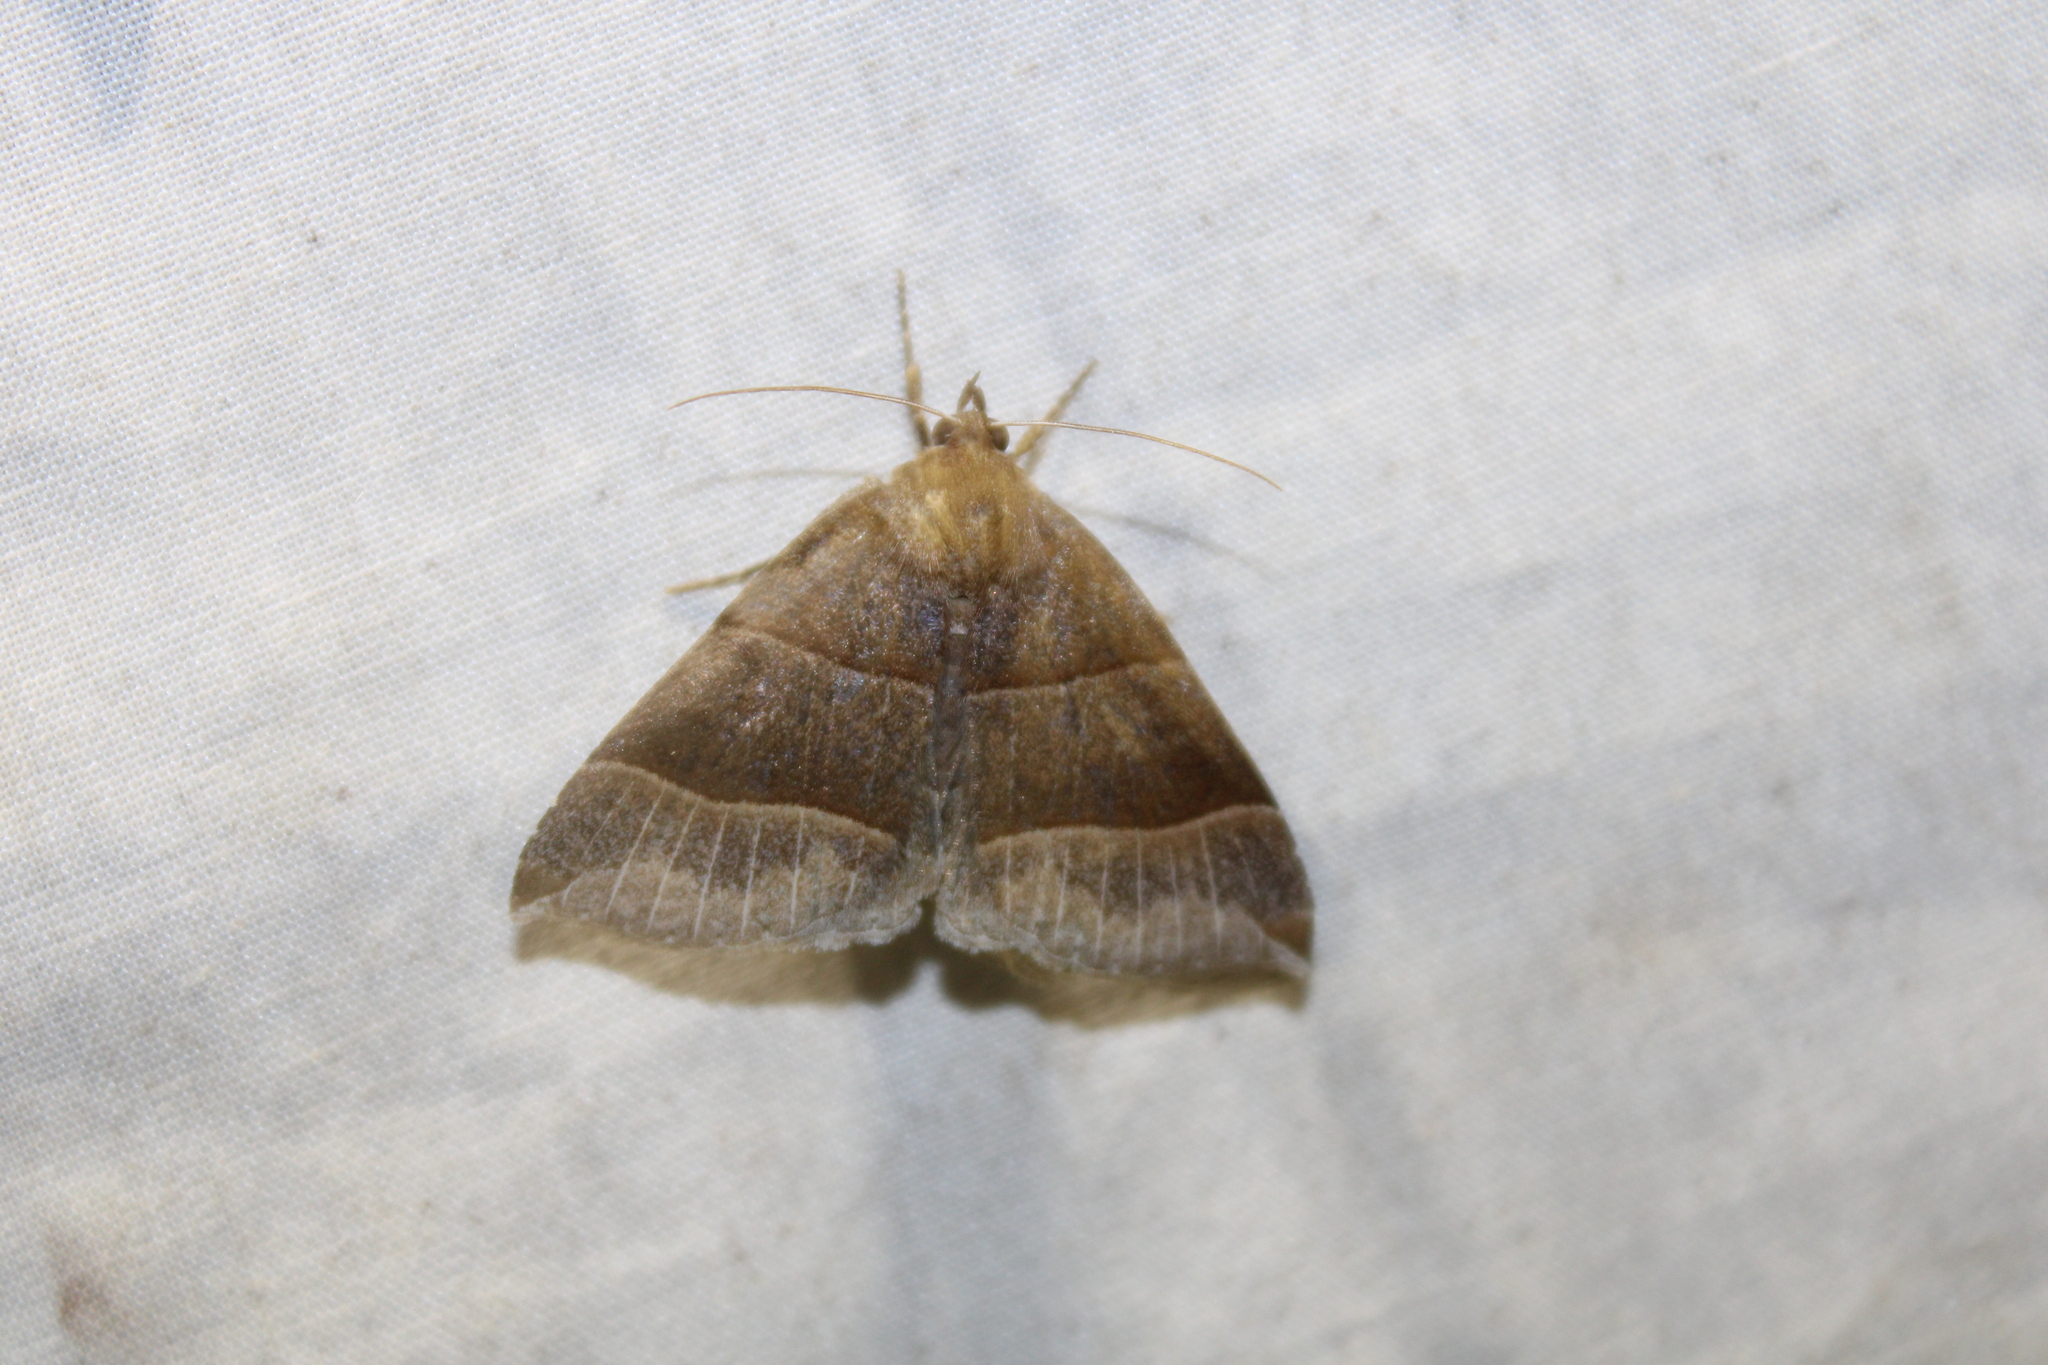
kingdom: Animalia
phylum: Arthropoda
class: Insecta
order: Lepidoptera
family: Erebidae
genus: Parallelia
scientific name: Parallelia bistriaris
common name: Maple looper moth
